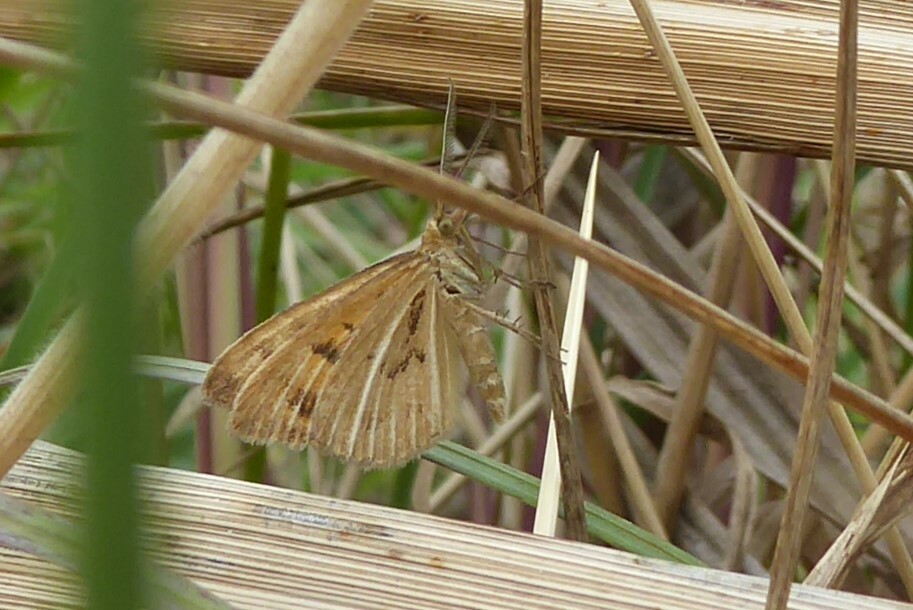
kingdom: Animalia
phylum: Arthropoda
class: Insecta
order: Lepidoptera
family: Geometridae
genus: Asaphodes
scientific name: Asaphodes abrogata
